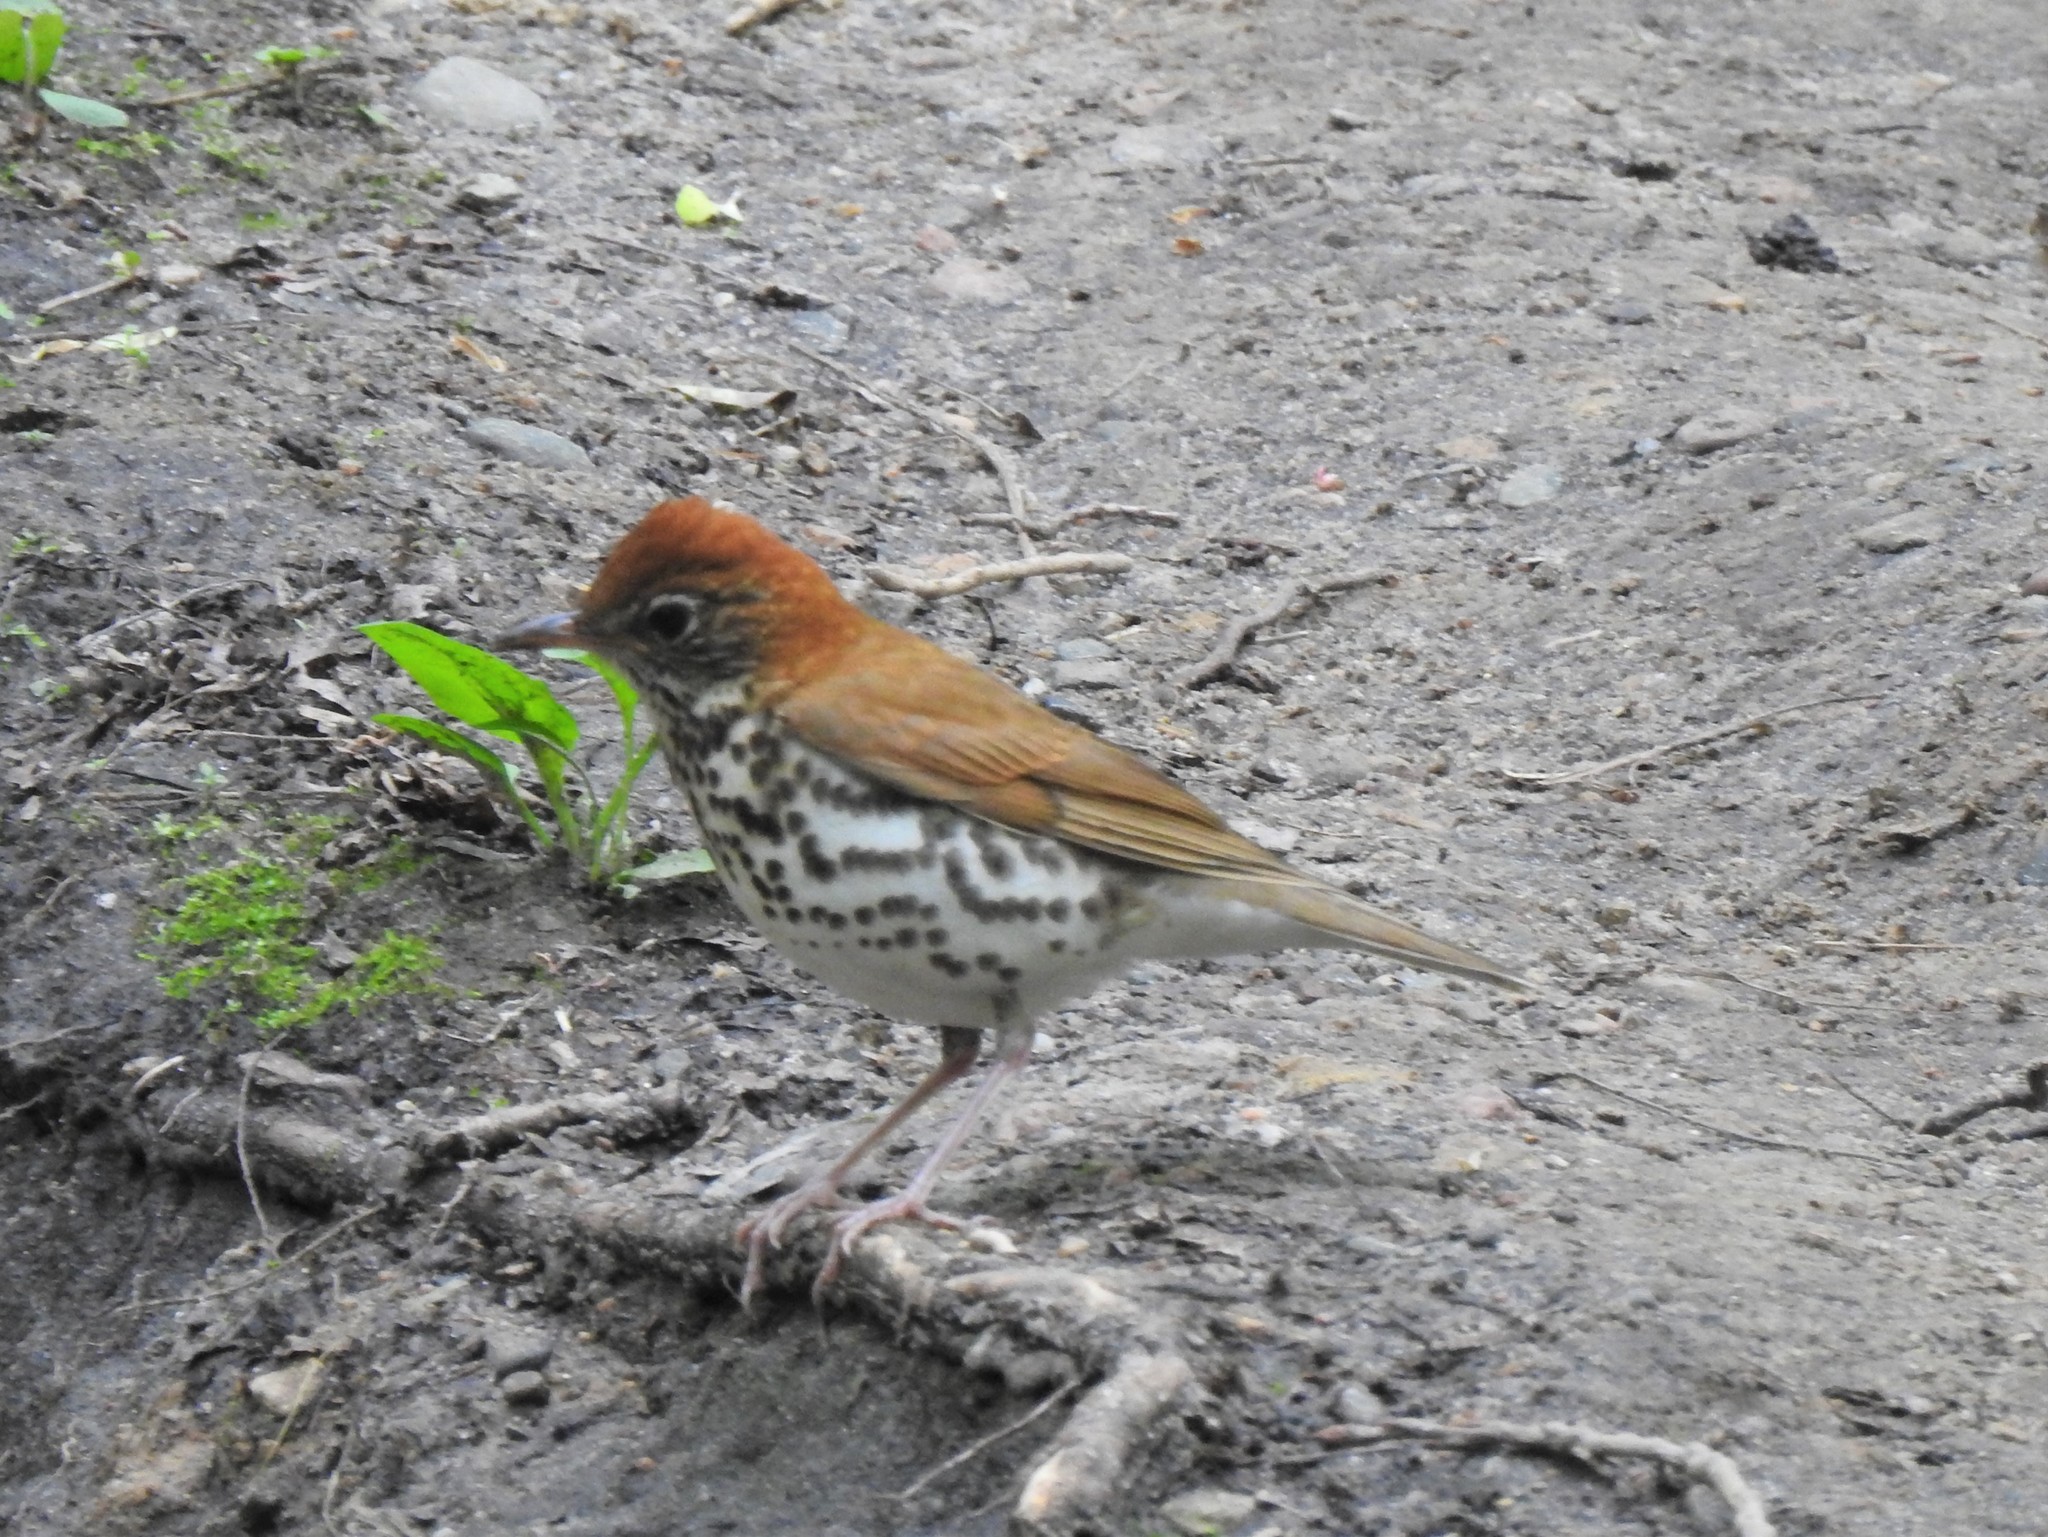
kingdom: Animalia
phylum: Chordata
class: Aves
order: Passeriformes
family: Turdidae
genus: Hylocichla
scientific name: Hylocichla mustelina
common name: Wood thrush
